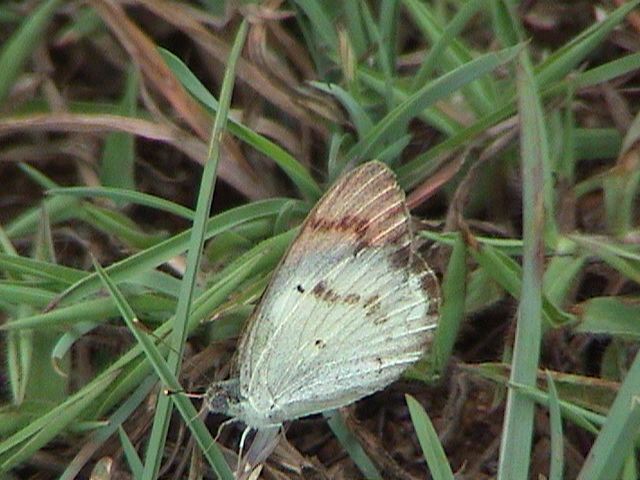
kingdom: Animalia
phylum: Arthropoda
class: Insecta
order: Lepidoptera
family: Pieridae
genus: Colotis
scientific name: Colotis etrida
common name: Little orange tip
